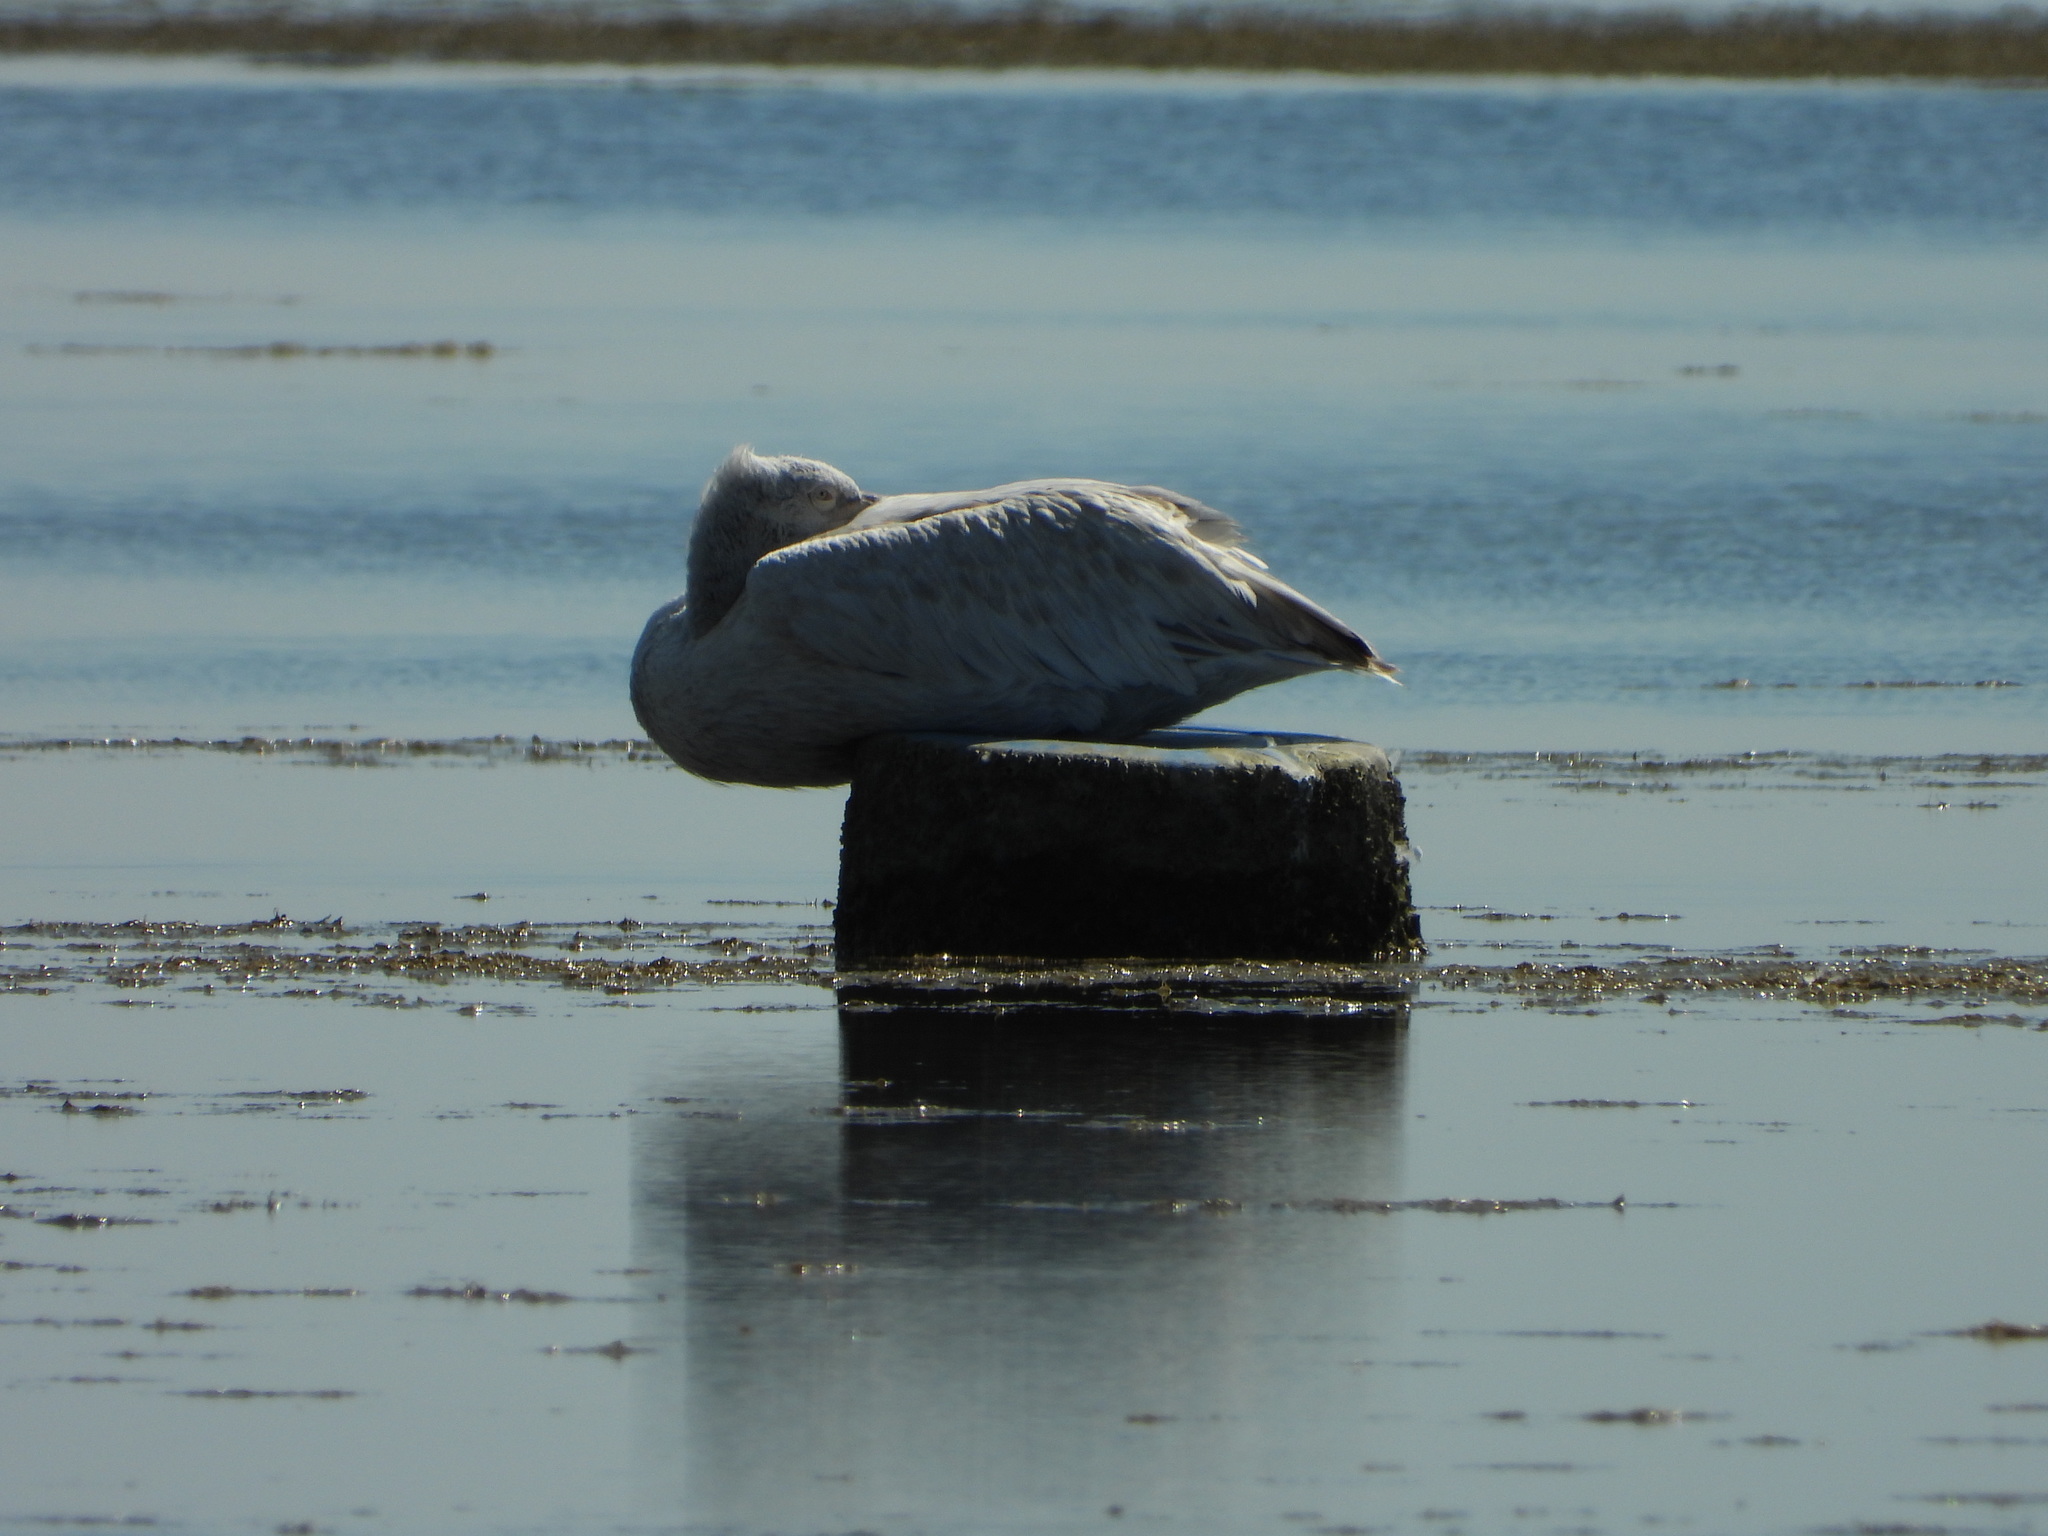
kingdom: Animalia
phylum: Chordata
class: Aves
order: Pelecaniformes
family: Pelecanidae
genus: Pelecanus
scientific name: Pelecanus crispus
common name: Dalmatian pelican
